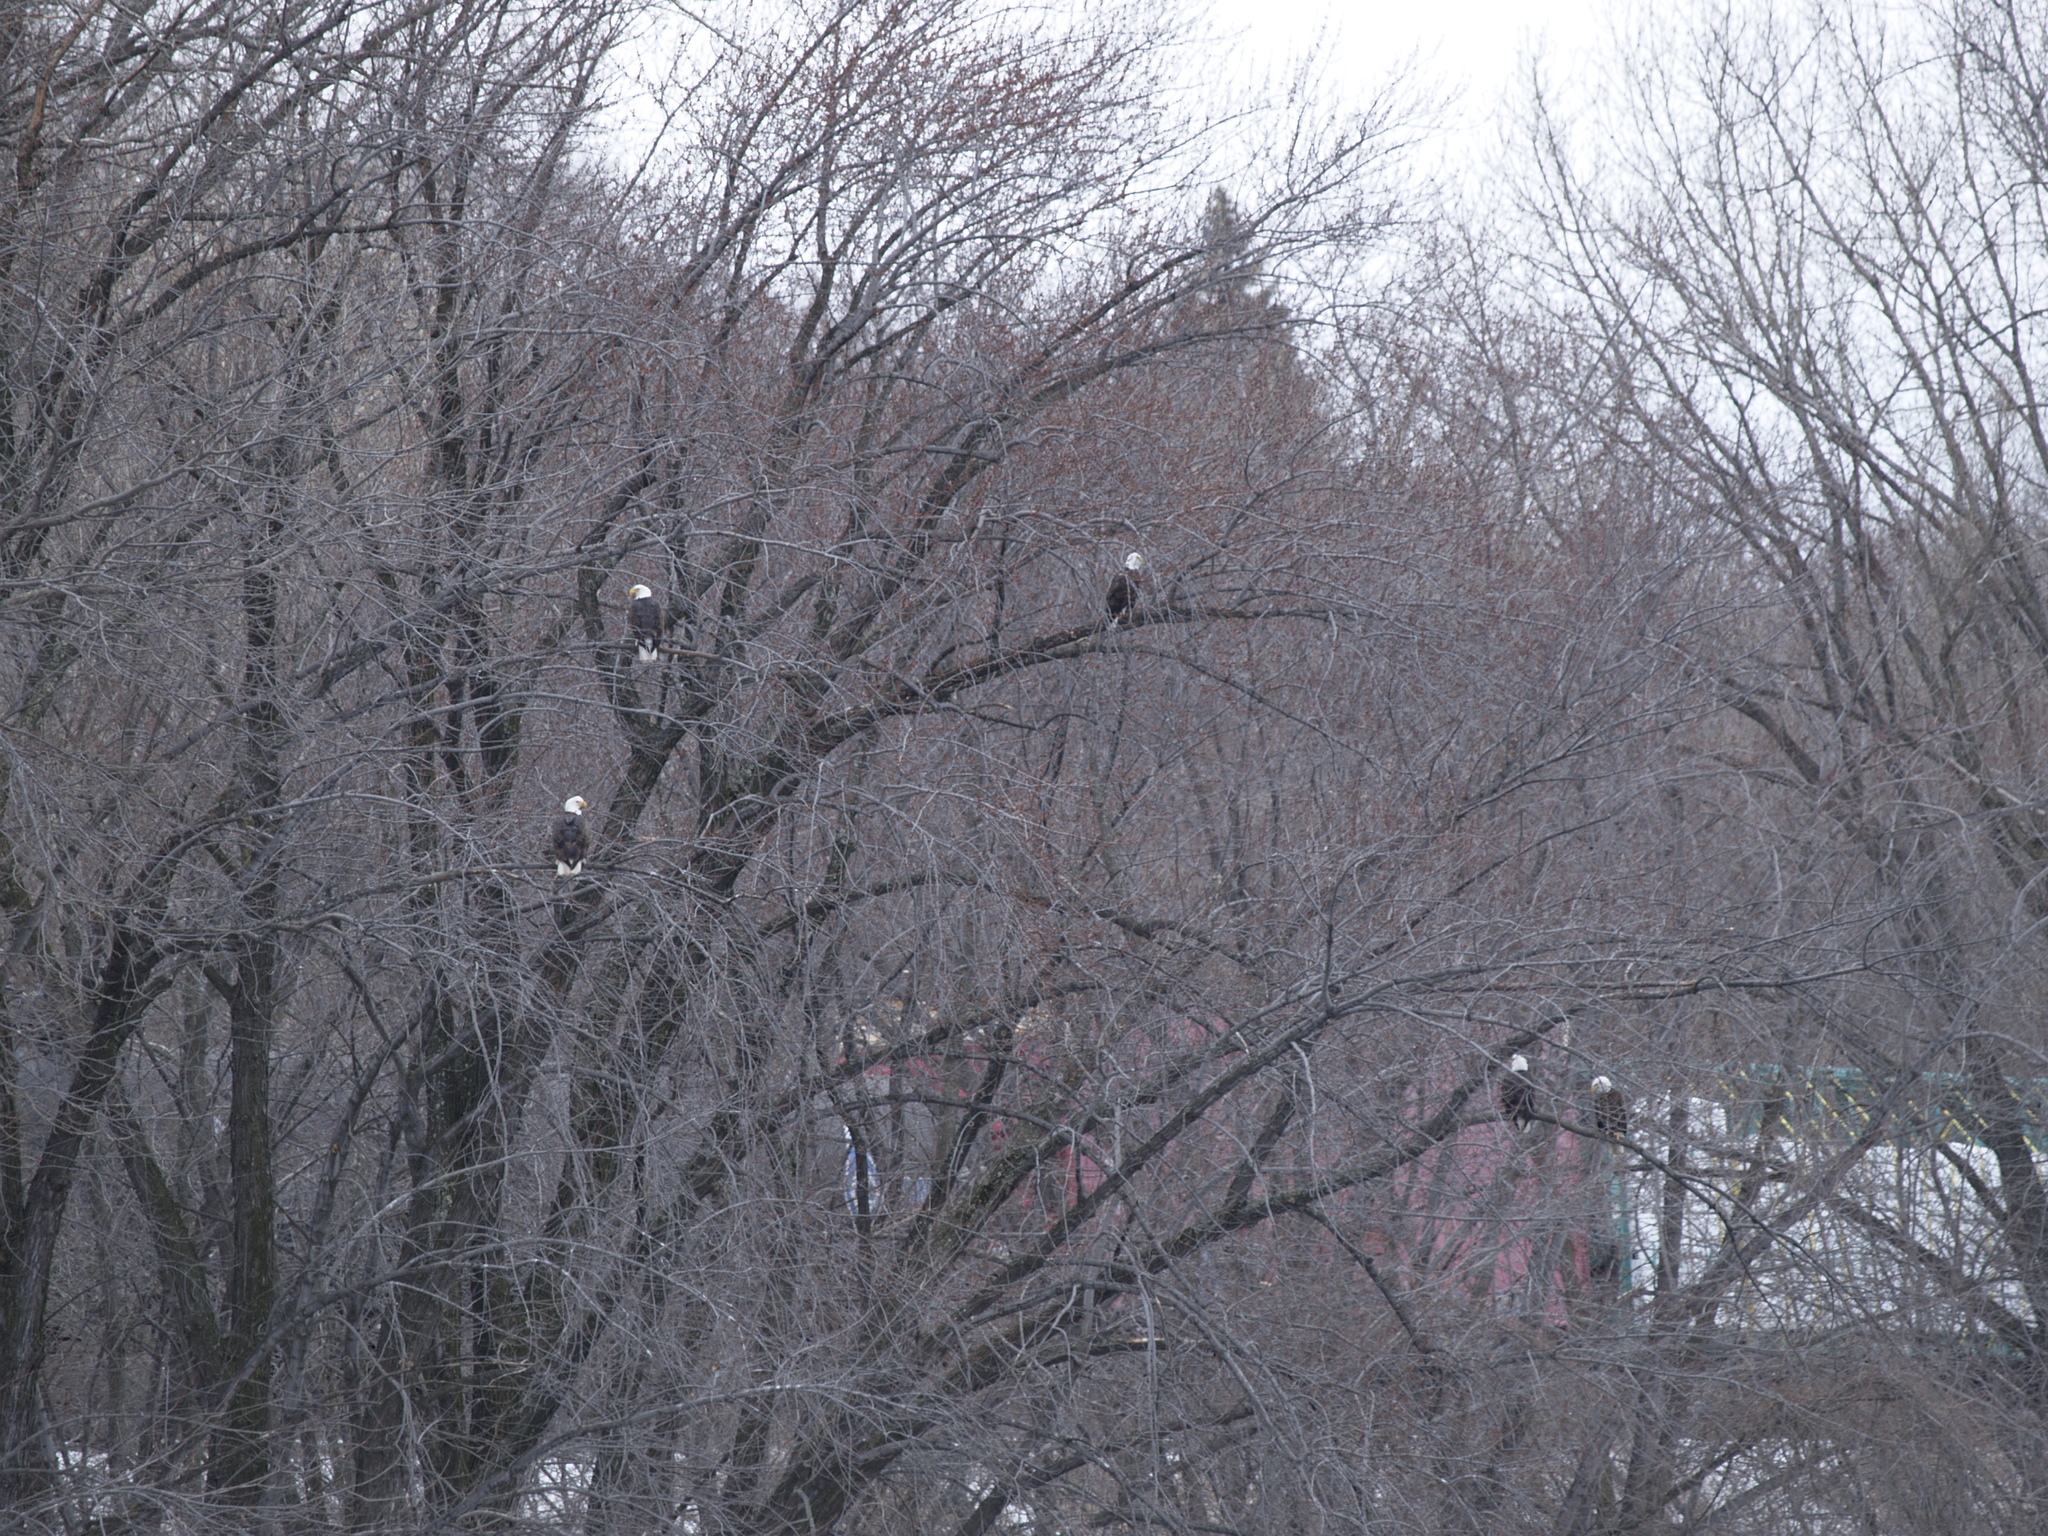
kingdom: Animalia
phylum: Chordata
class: Aves
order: Accipitriformes
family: Accipitridae
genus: Haliaeetus
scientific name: Haliaeetus leucocephalus
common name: Bald eagle
